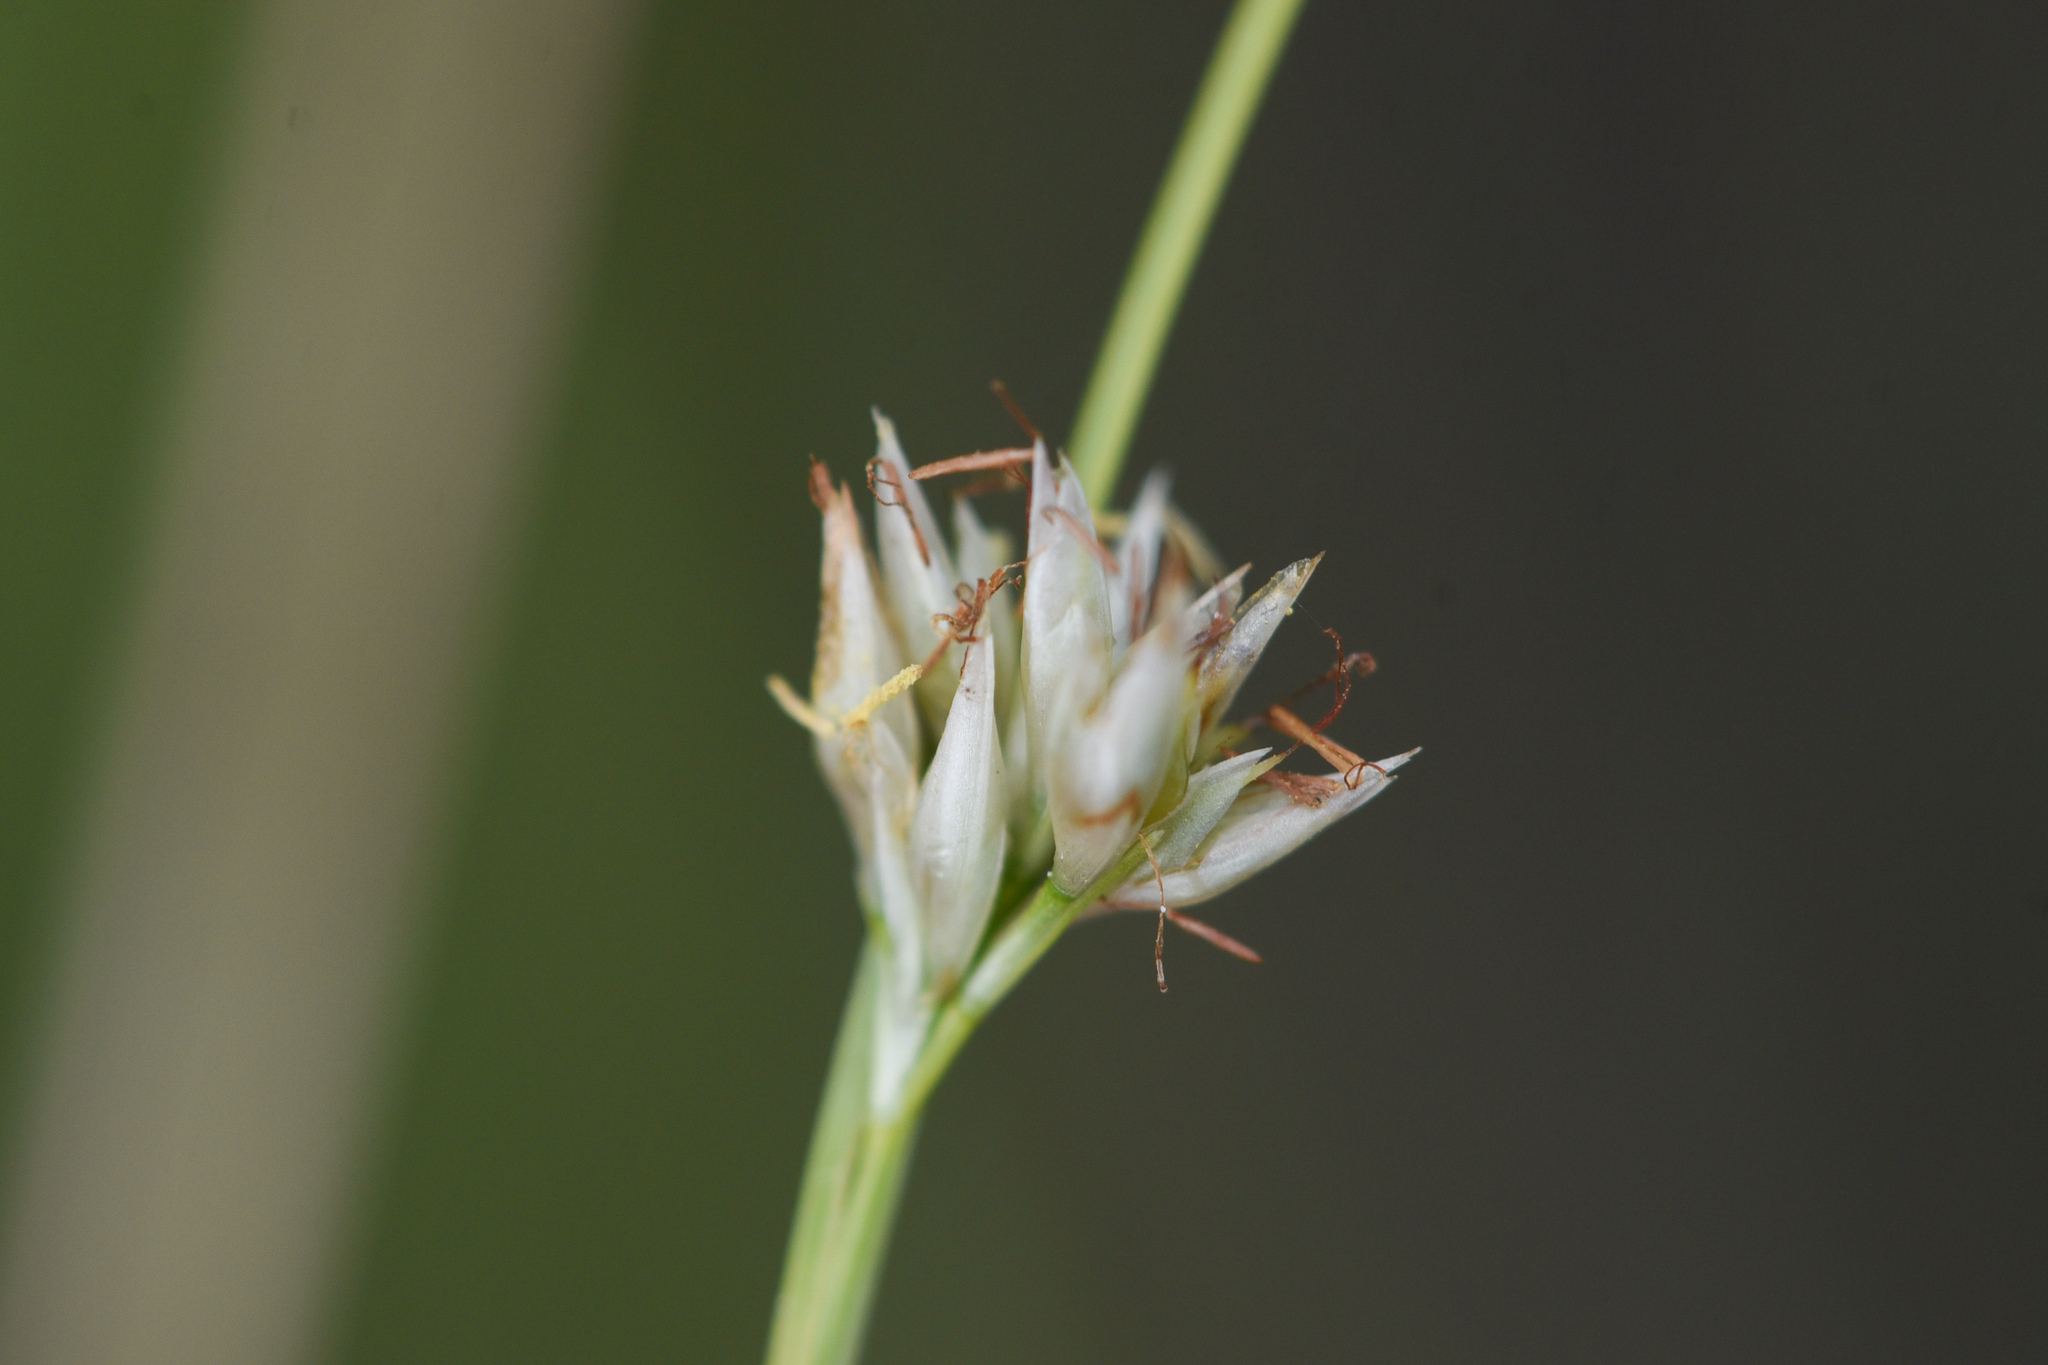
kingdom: Plantae
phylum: Tracheophyta
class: Liliopsida
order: Poales
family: Cyperaceae
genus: Rhynchospora
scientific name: Rhynchospora alba
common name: White beak-sedge
